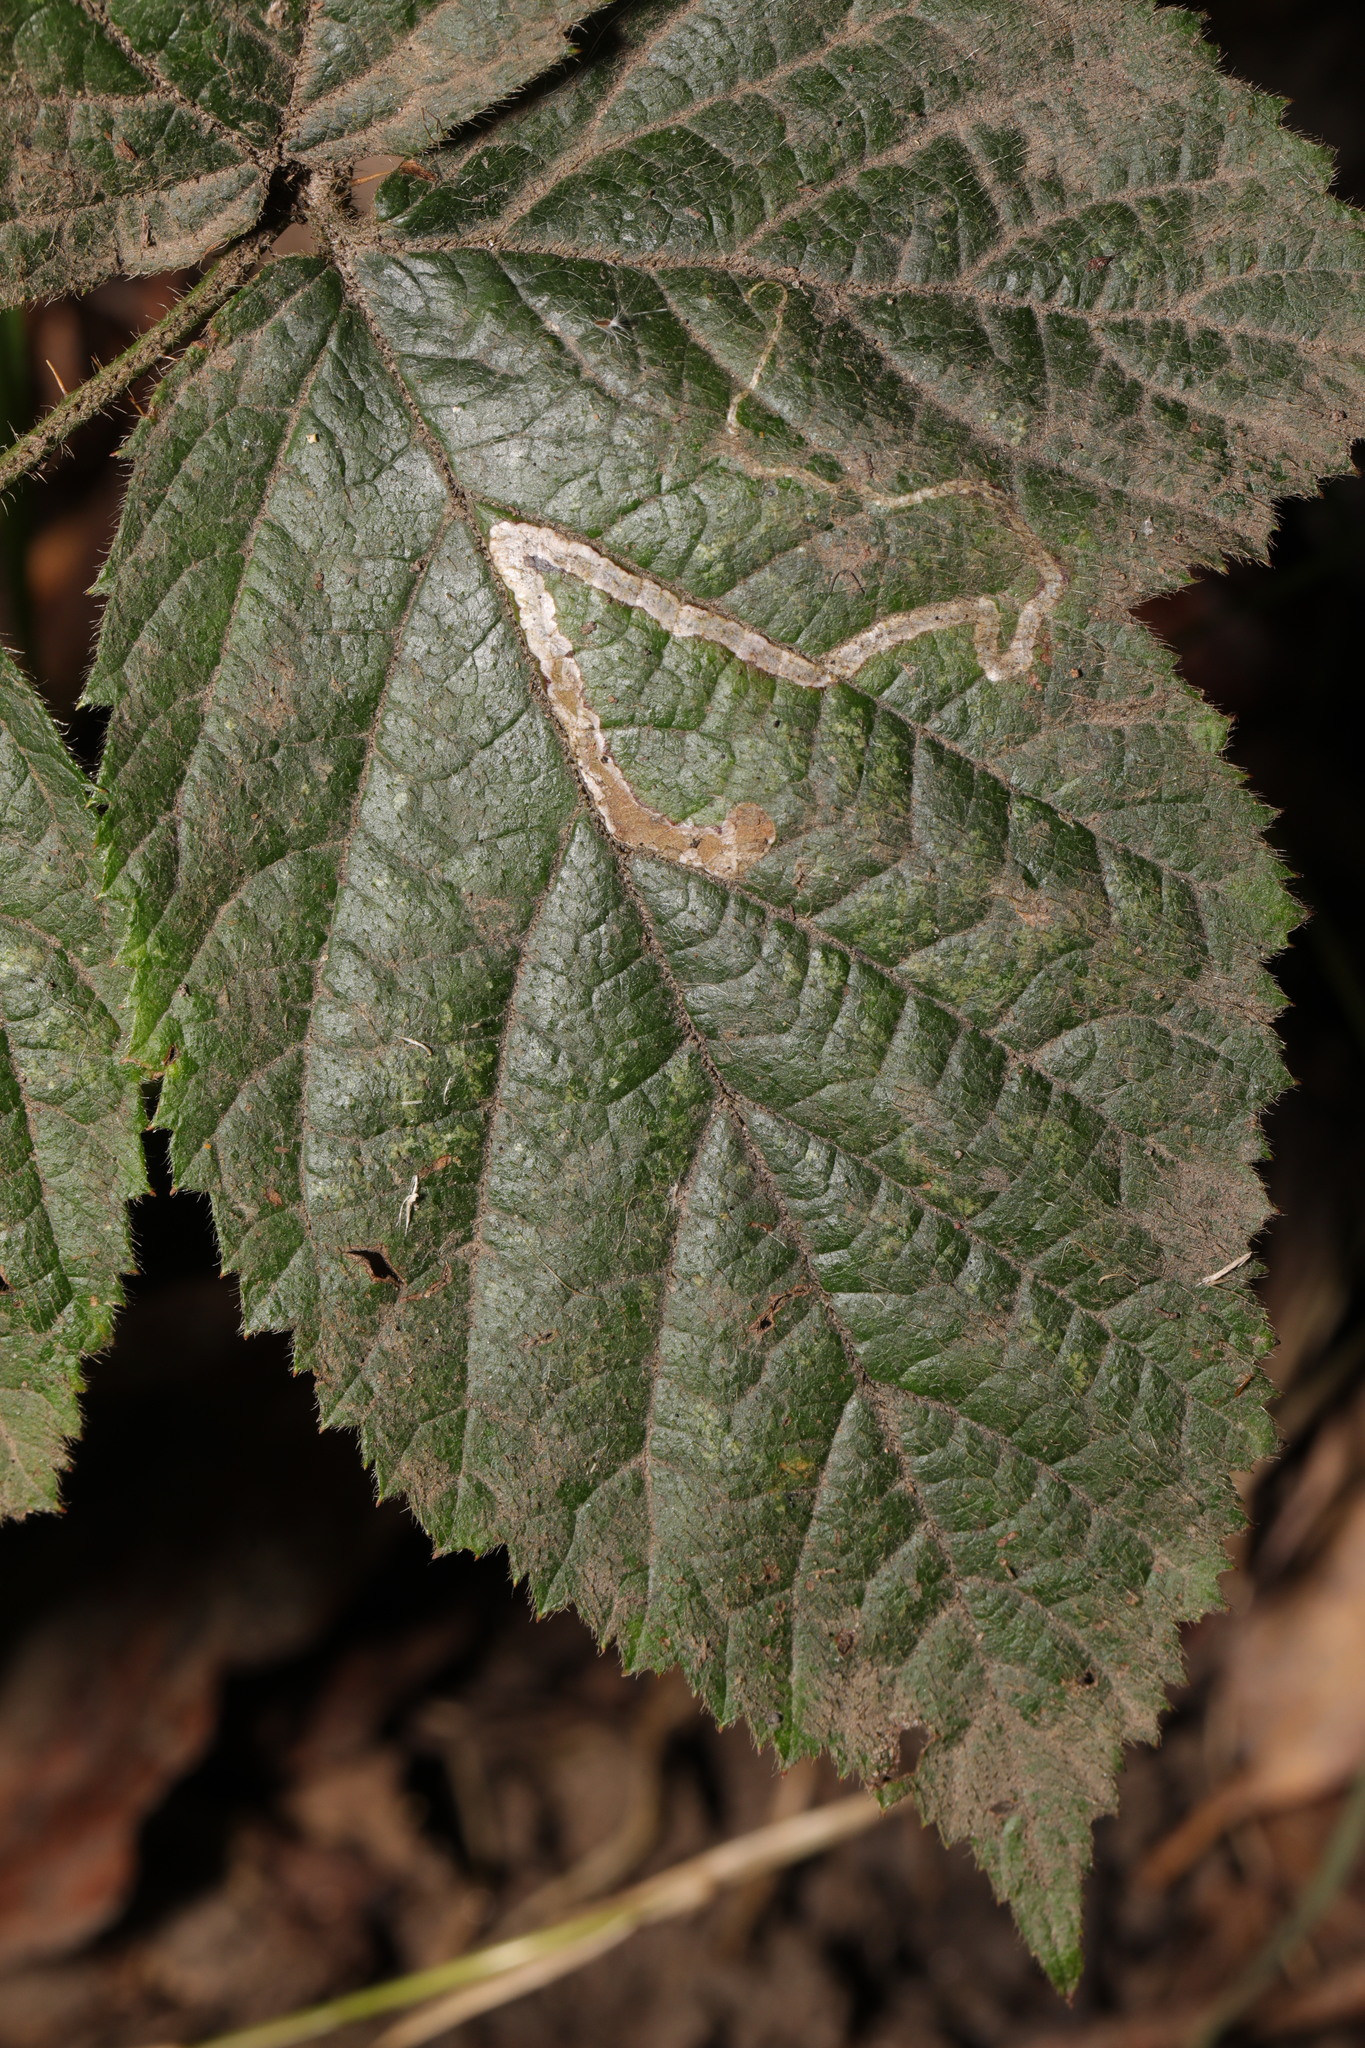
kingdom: Animalia
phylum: Arthropoda
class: Insecta
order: Lepidoptera
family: Nepticulidae
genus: Stigmella
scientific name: Stigmella aurella
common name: Golden pigmy
